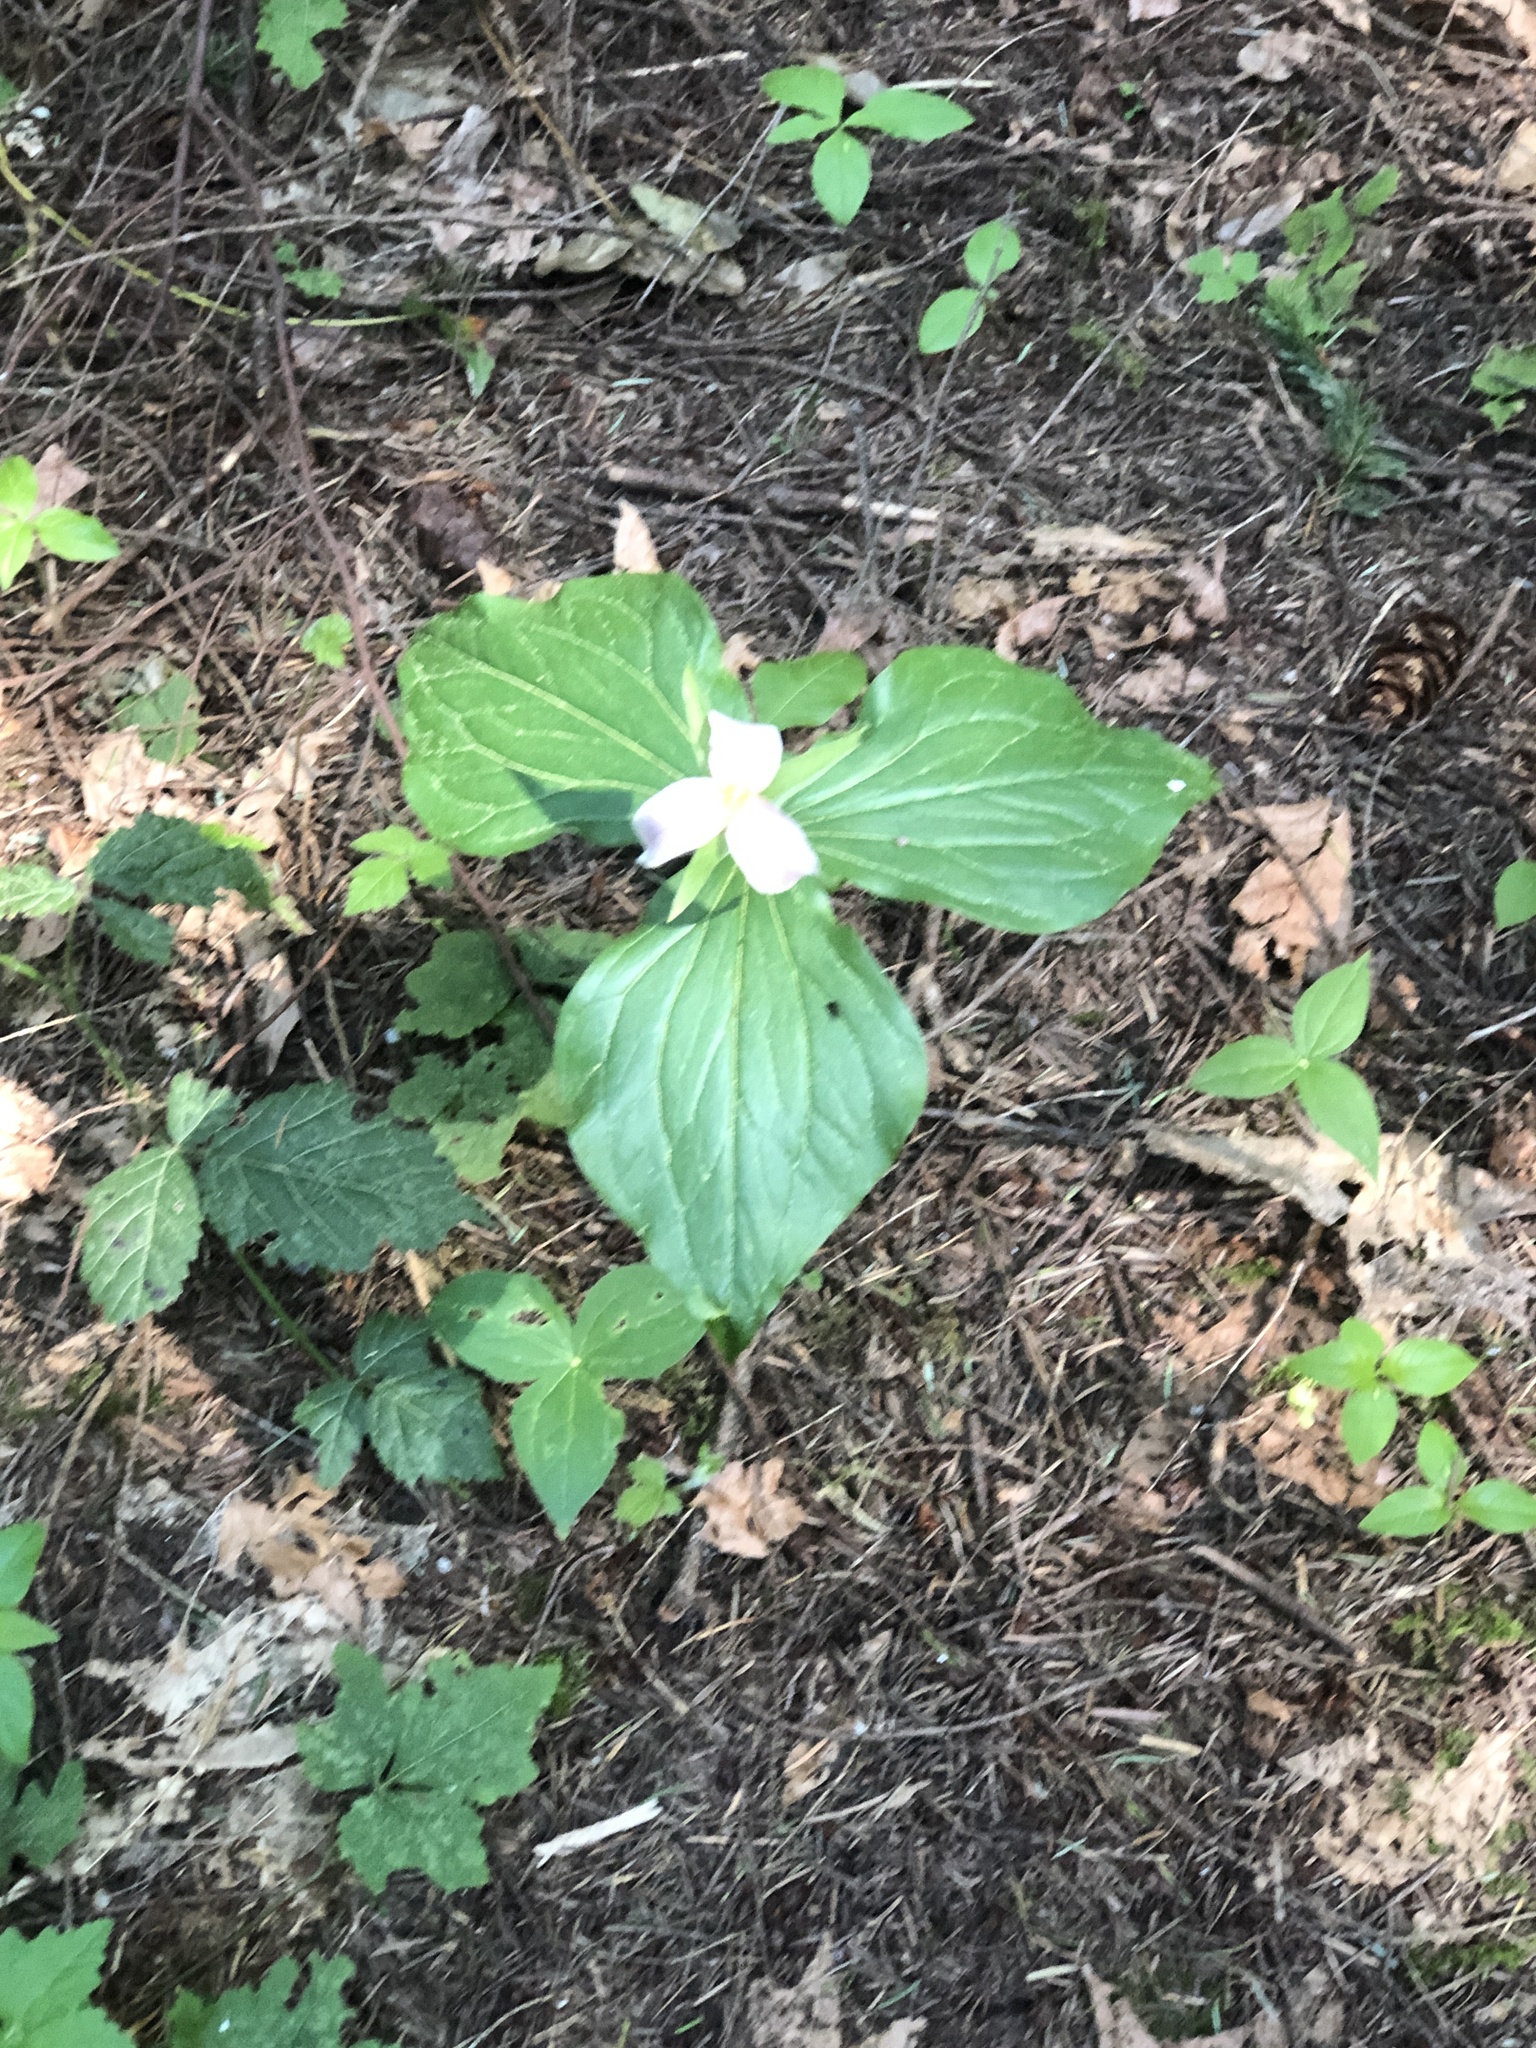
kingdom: Plantae
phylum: Tracheophyta
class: Liliopsida
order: Liliales
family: Melanthiaceae
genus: Trillium
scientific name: Trillium ovatum
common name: Pacific trillium
